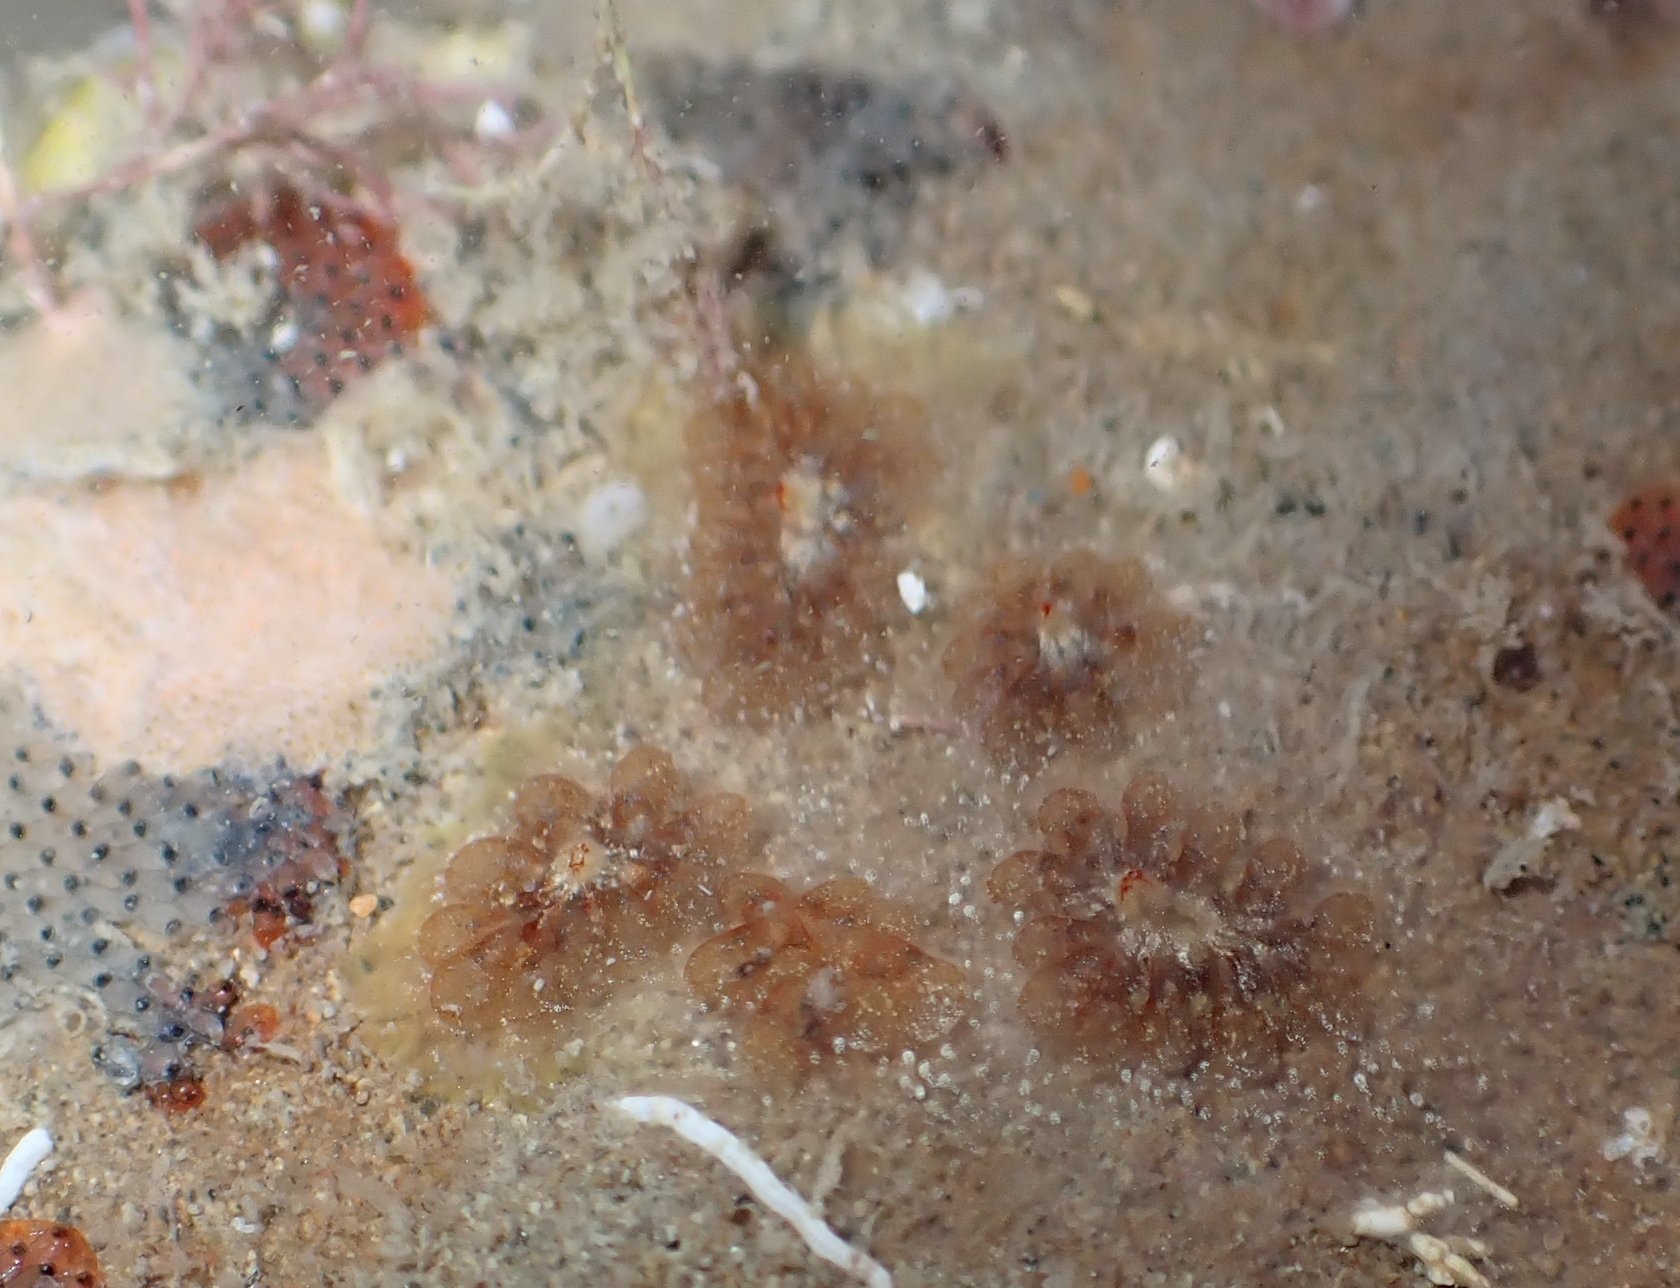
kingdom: Animalia
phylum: Chordata
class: Ascidiacea
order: Stolidobranchia
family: Styelidae
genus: Botryllus
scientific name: Botryllus schlosseri
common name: Golden star tunicate
